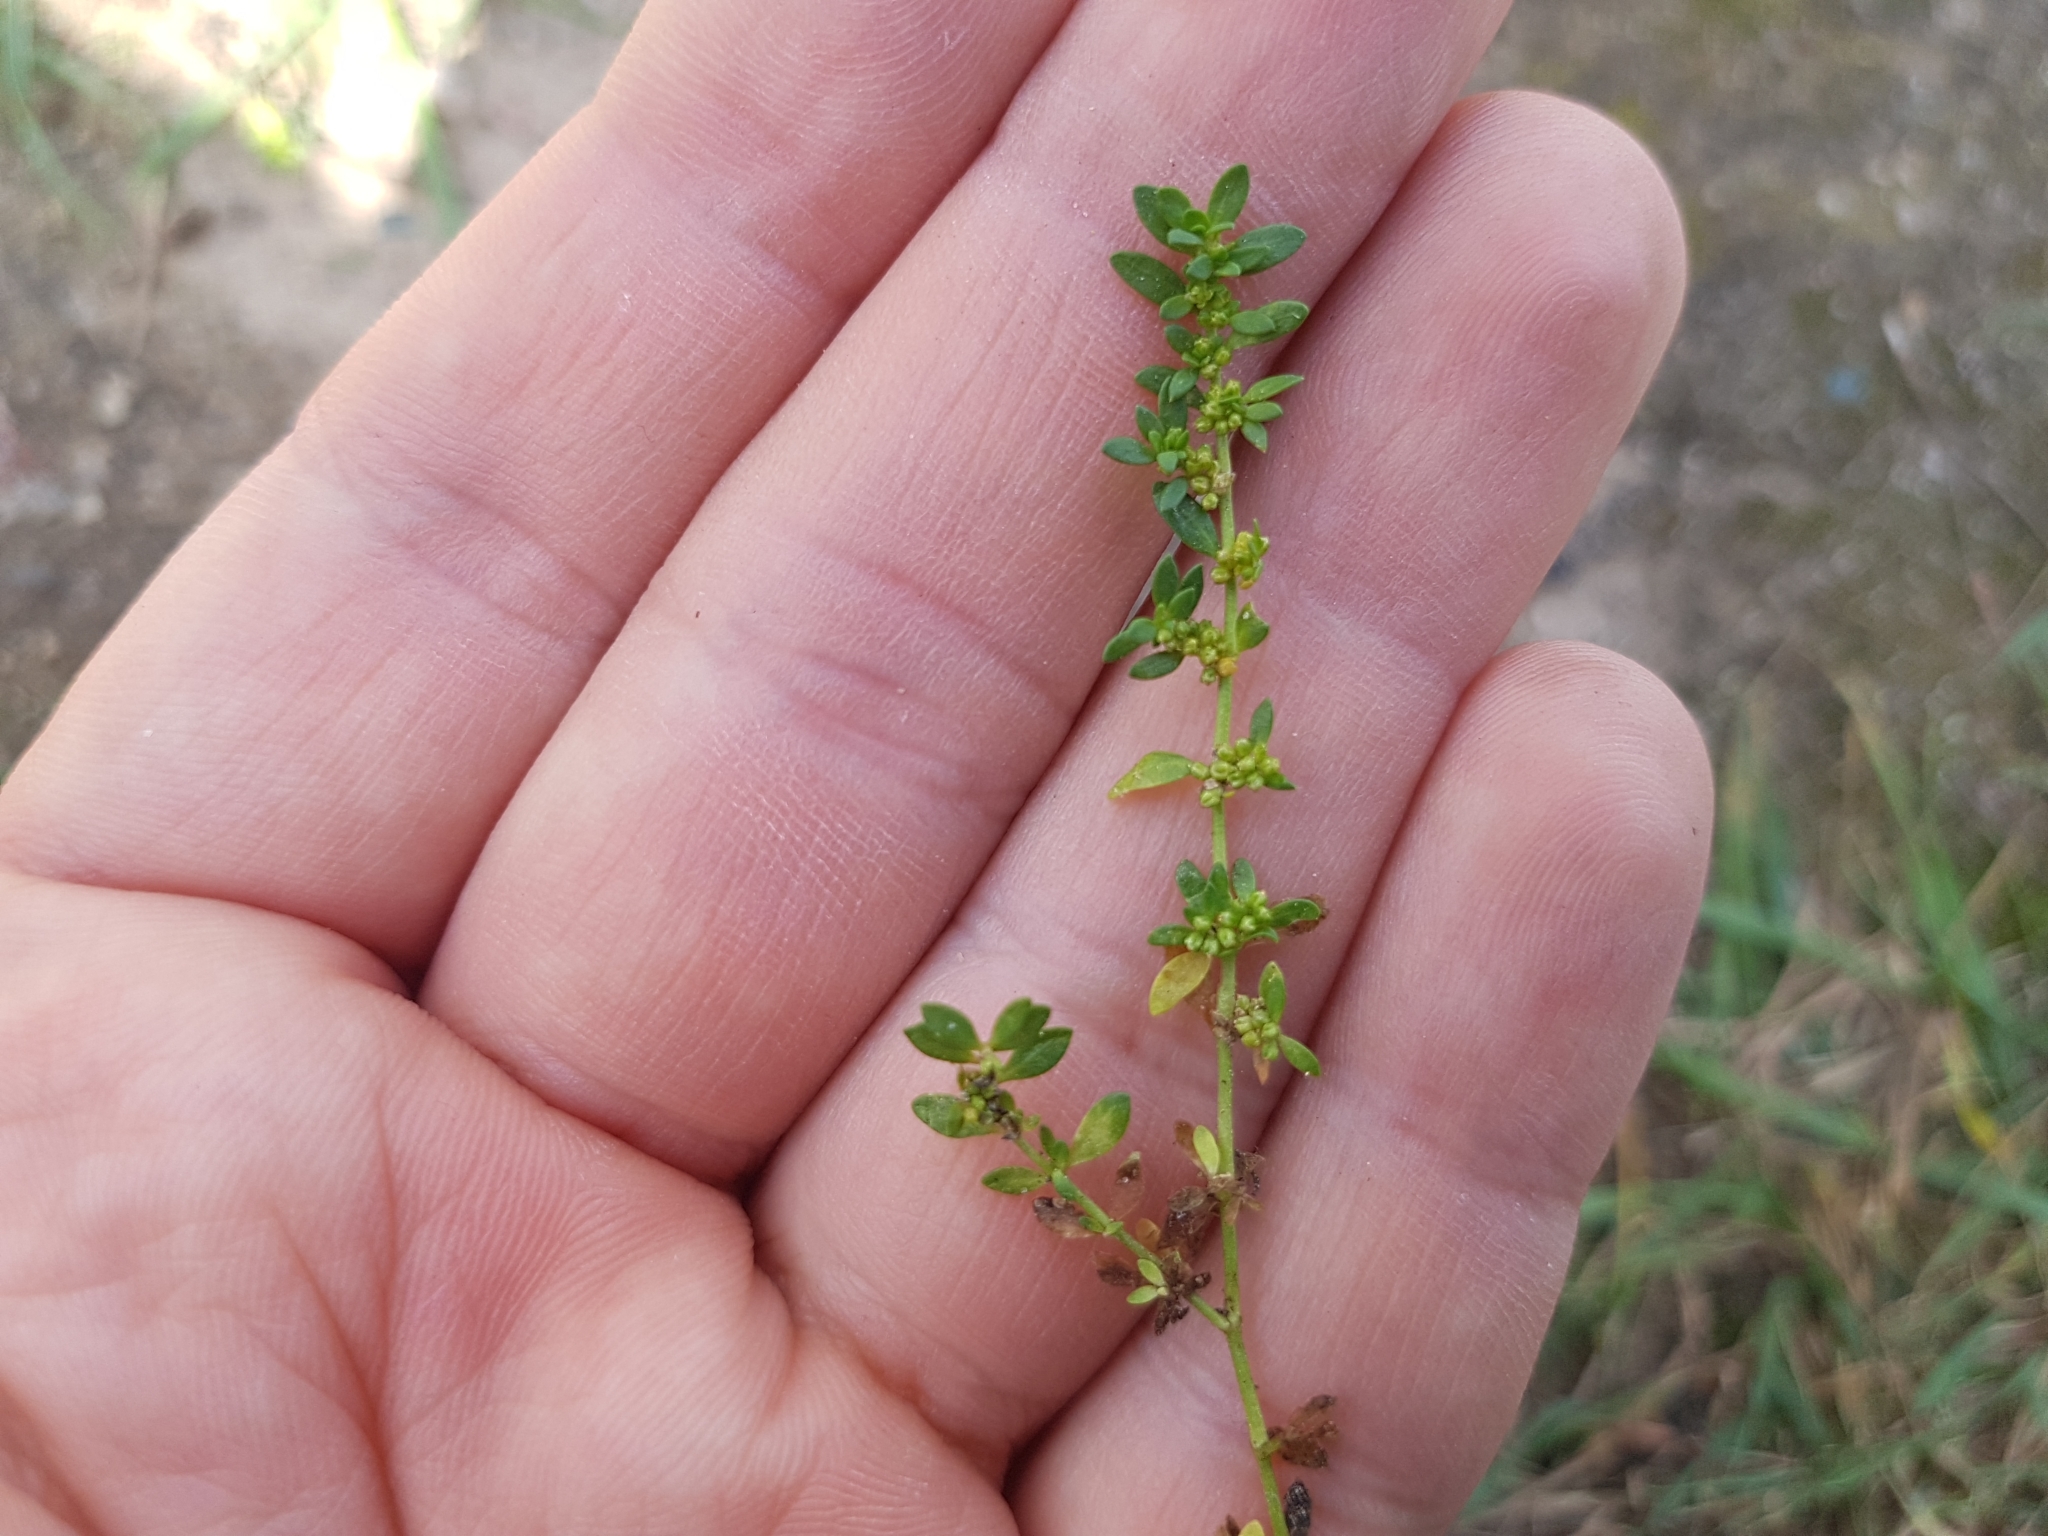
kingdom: Plantae
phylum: Tracheophyta
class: Magnoliopsida
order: Caryophyllales
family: Caryophyllaceae
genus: Herniaria
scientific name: Herniaria glabra
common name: Smooth rupturewort
